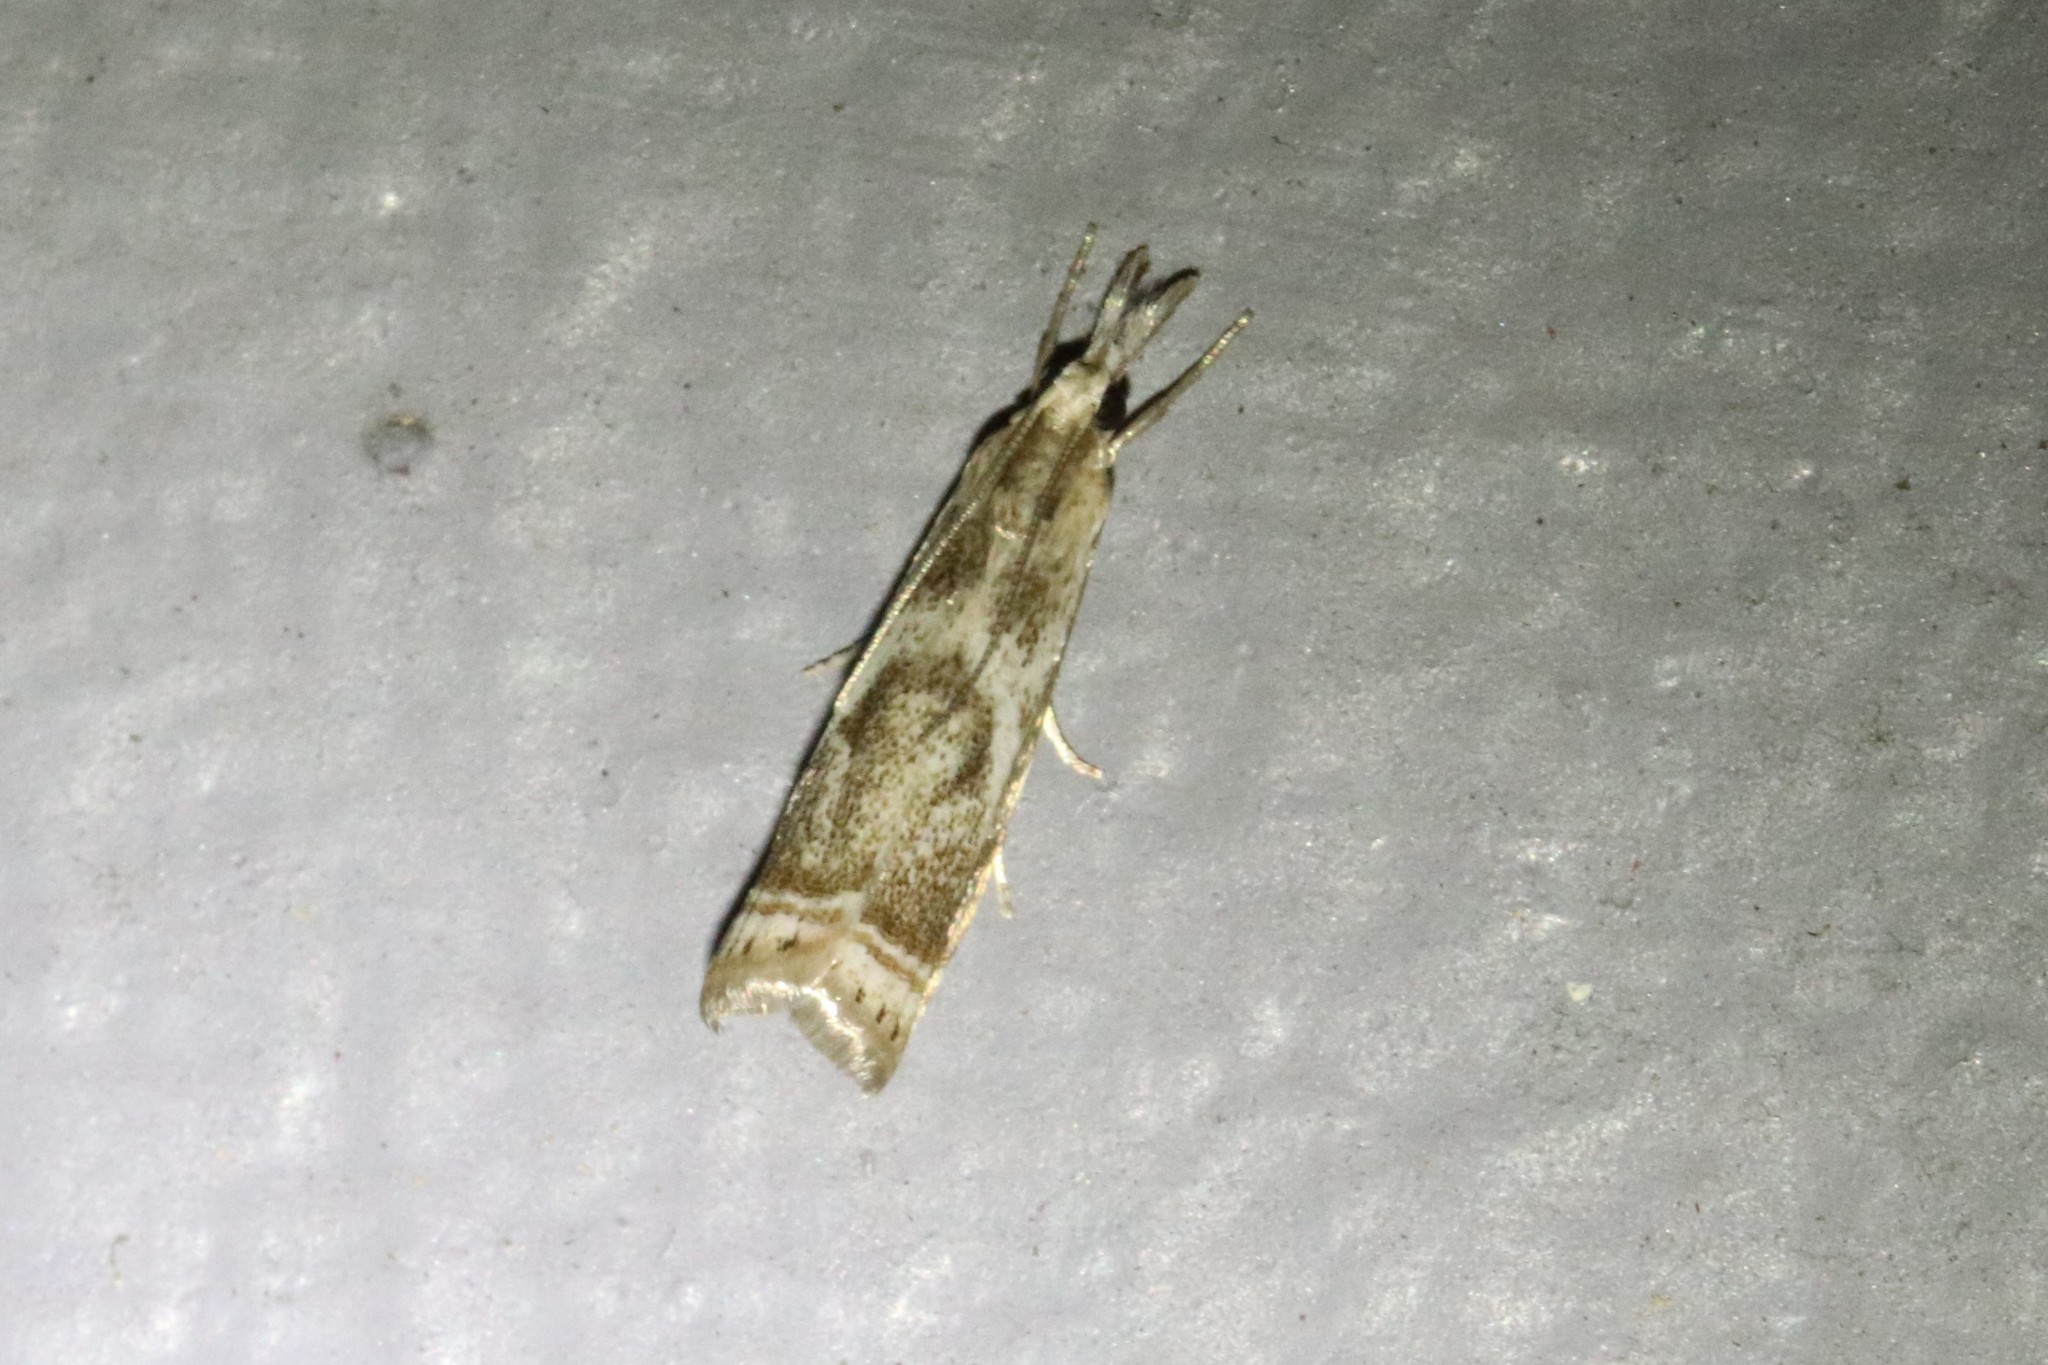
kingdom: Animalia
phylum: Arthropoda
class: Insecta
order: Lepidoptera
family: Crambidae
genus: Microcrambus
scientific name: Microcrambus elegans
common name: Elegant grass-veneer
